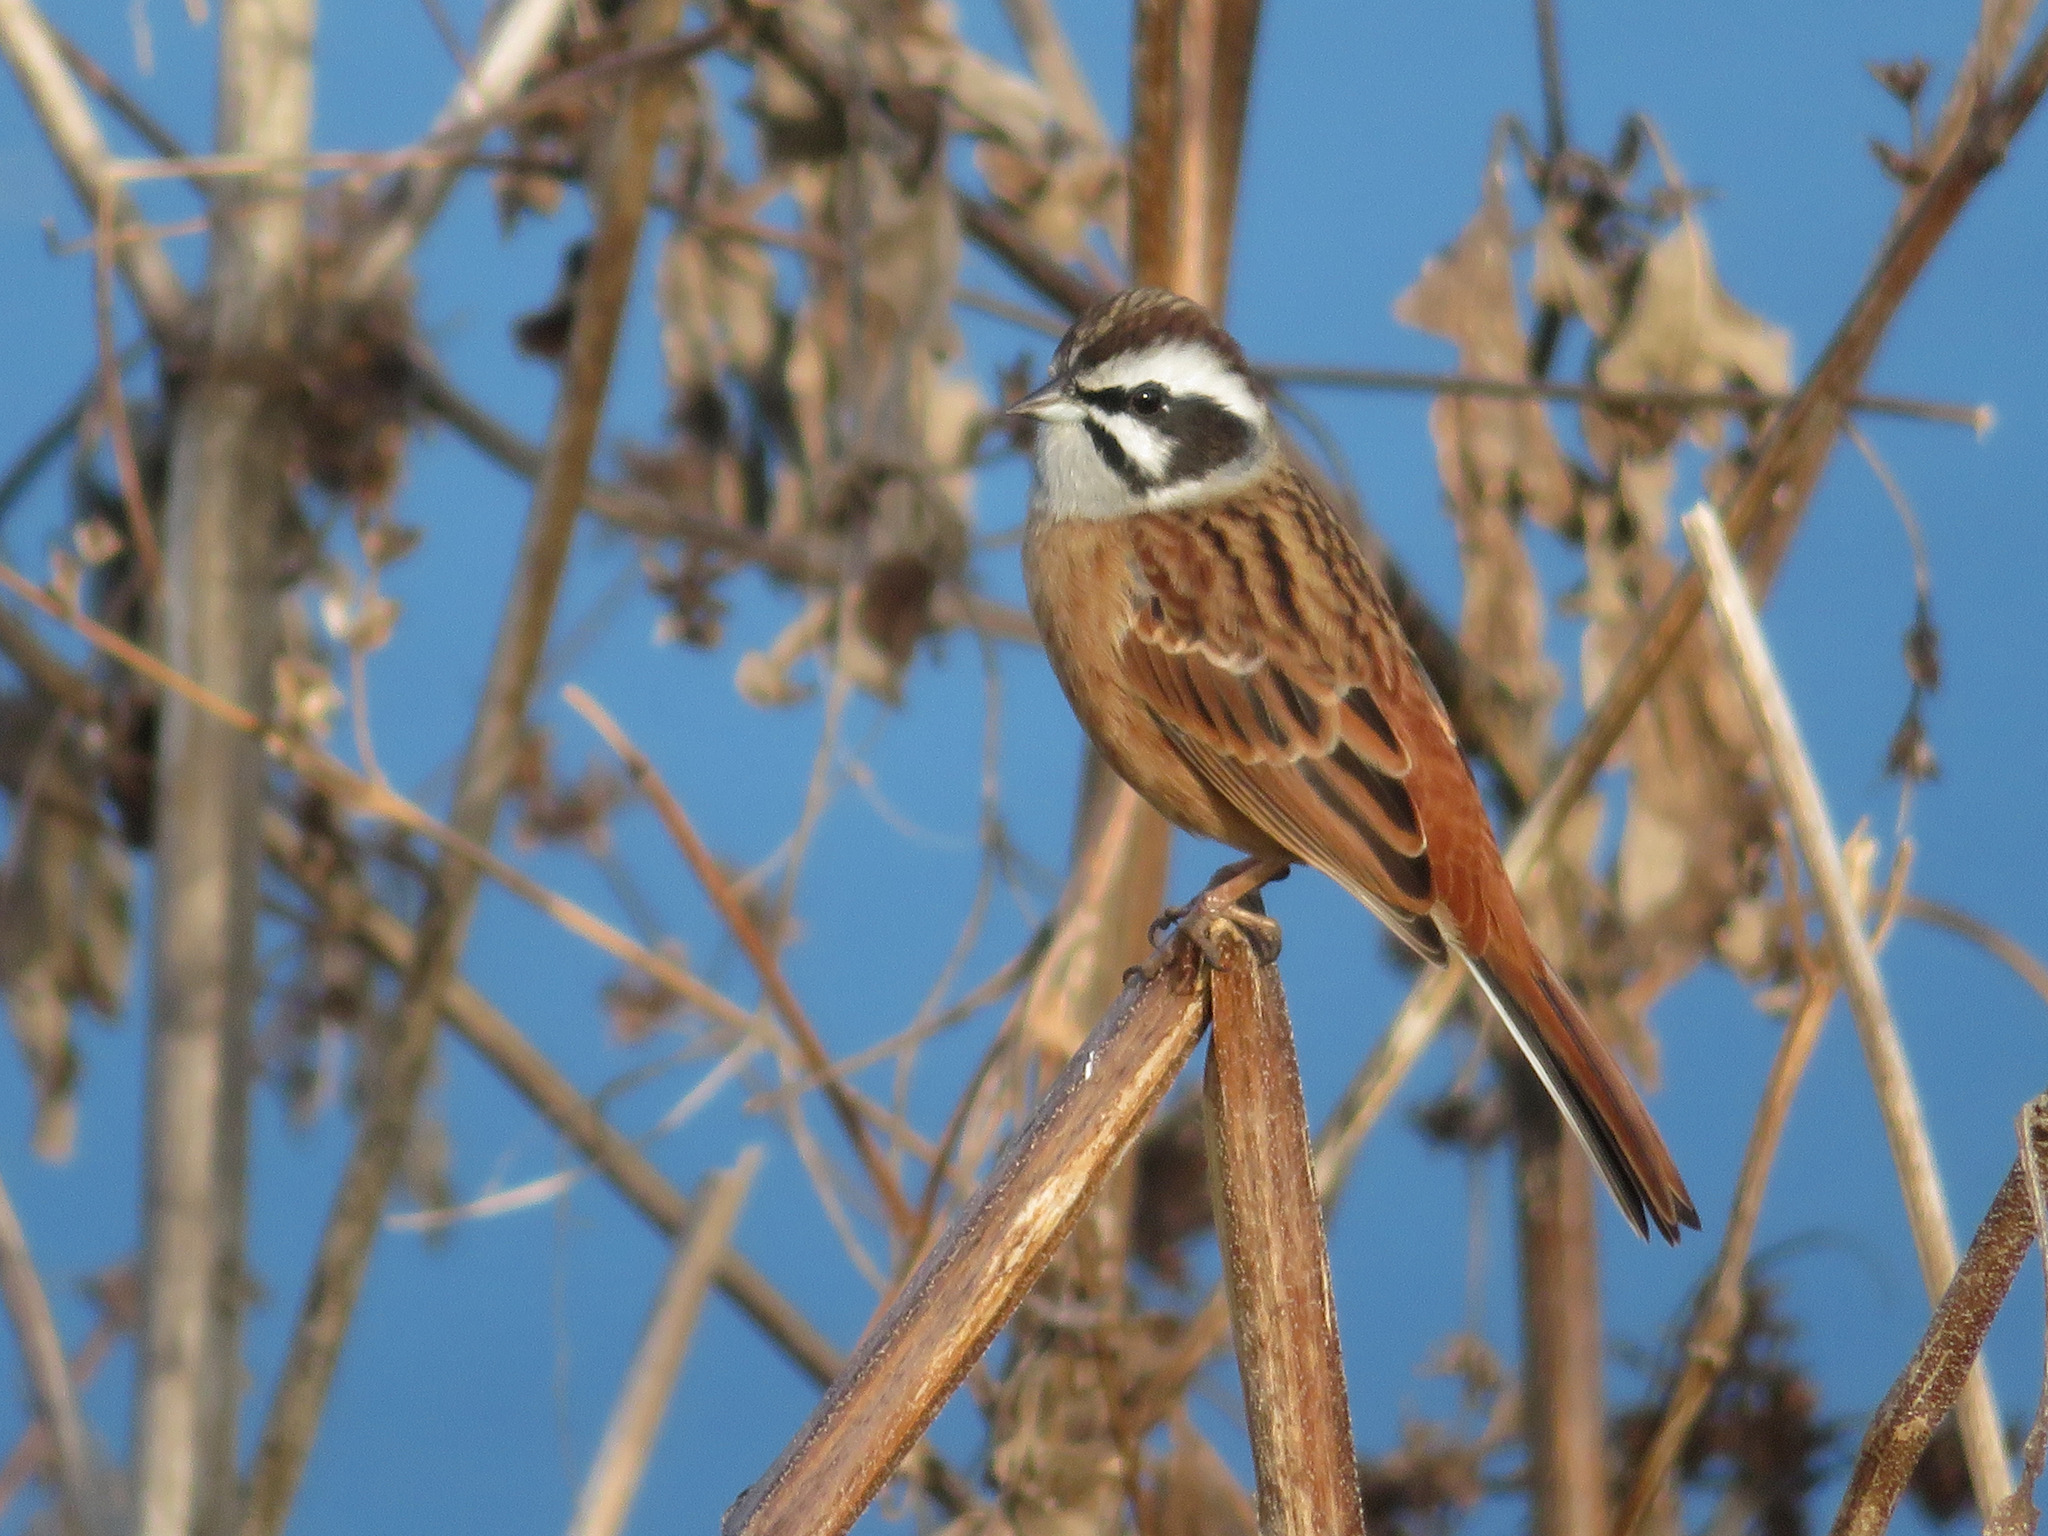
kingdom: Animalia
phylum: Chordata
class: Aves
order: Passeriformes
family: Emberizidae
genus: Emberiza
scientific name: Emberiza cioides
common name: Meadow bunting
